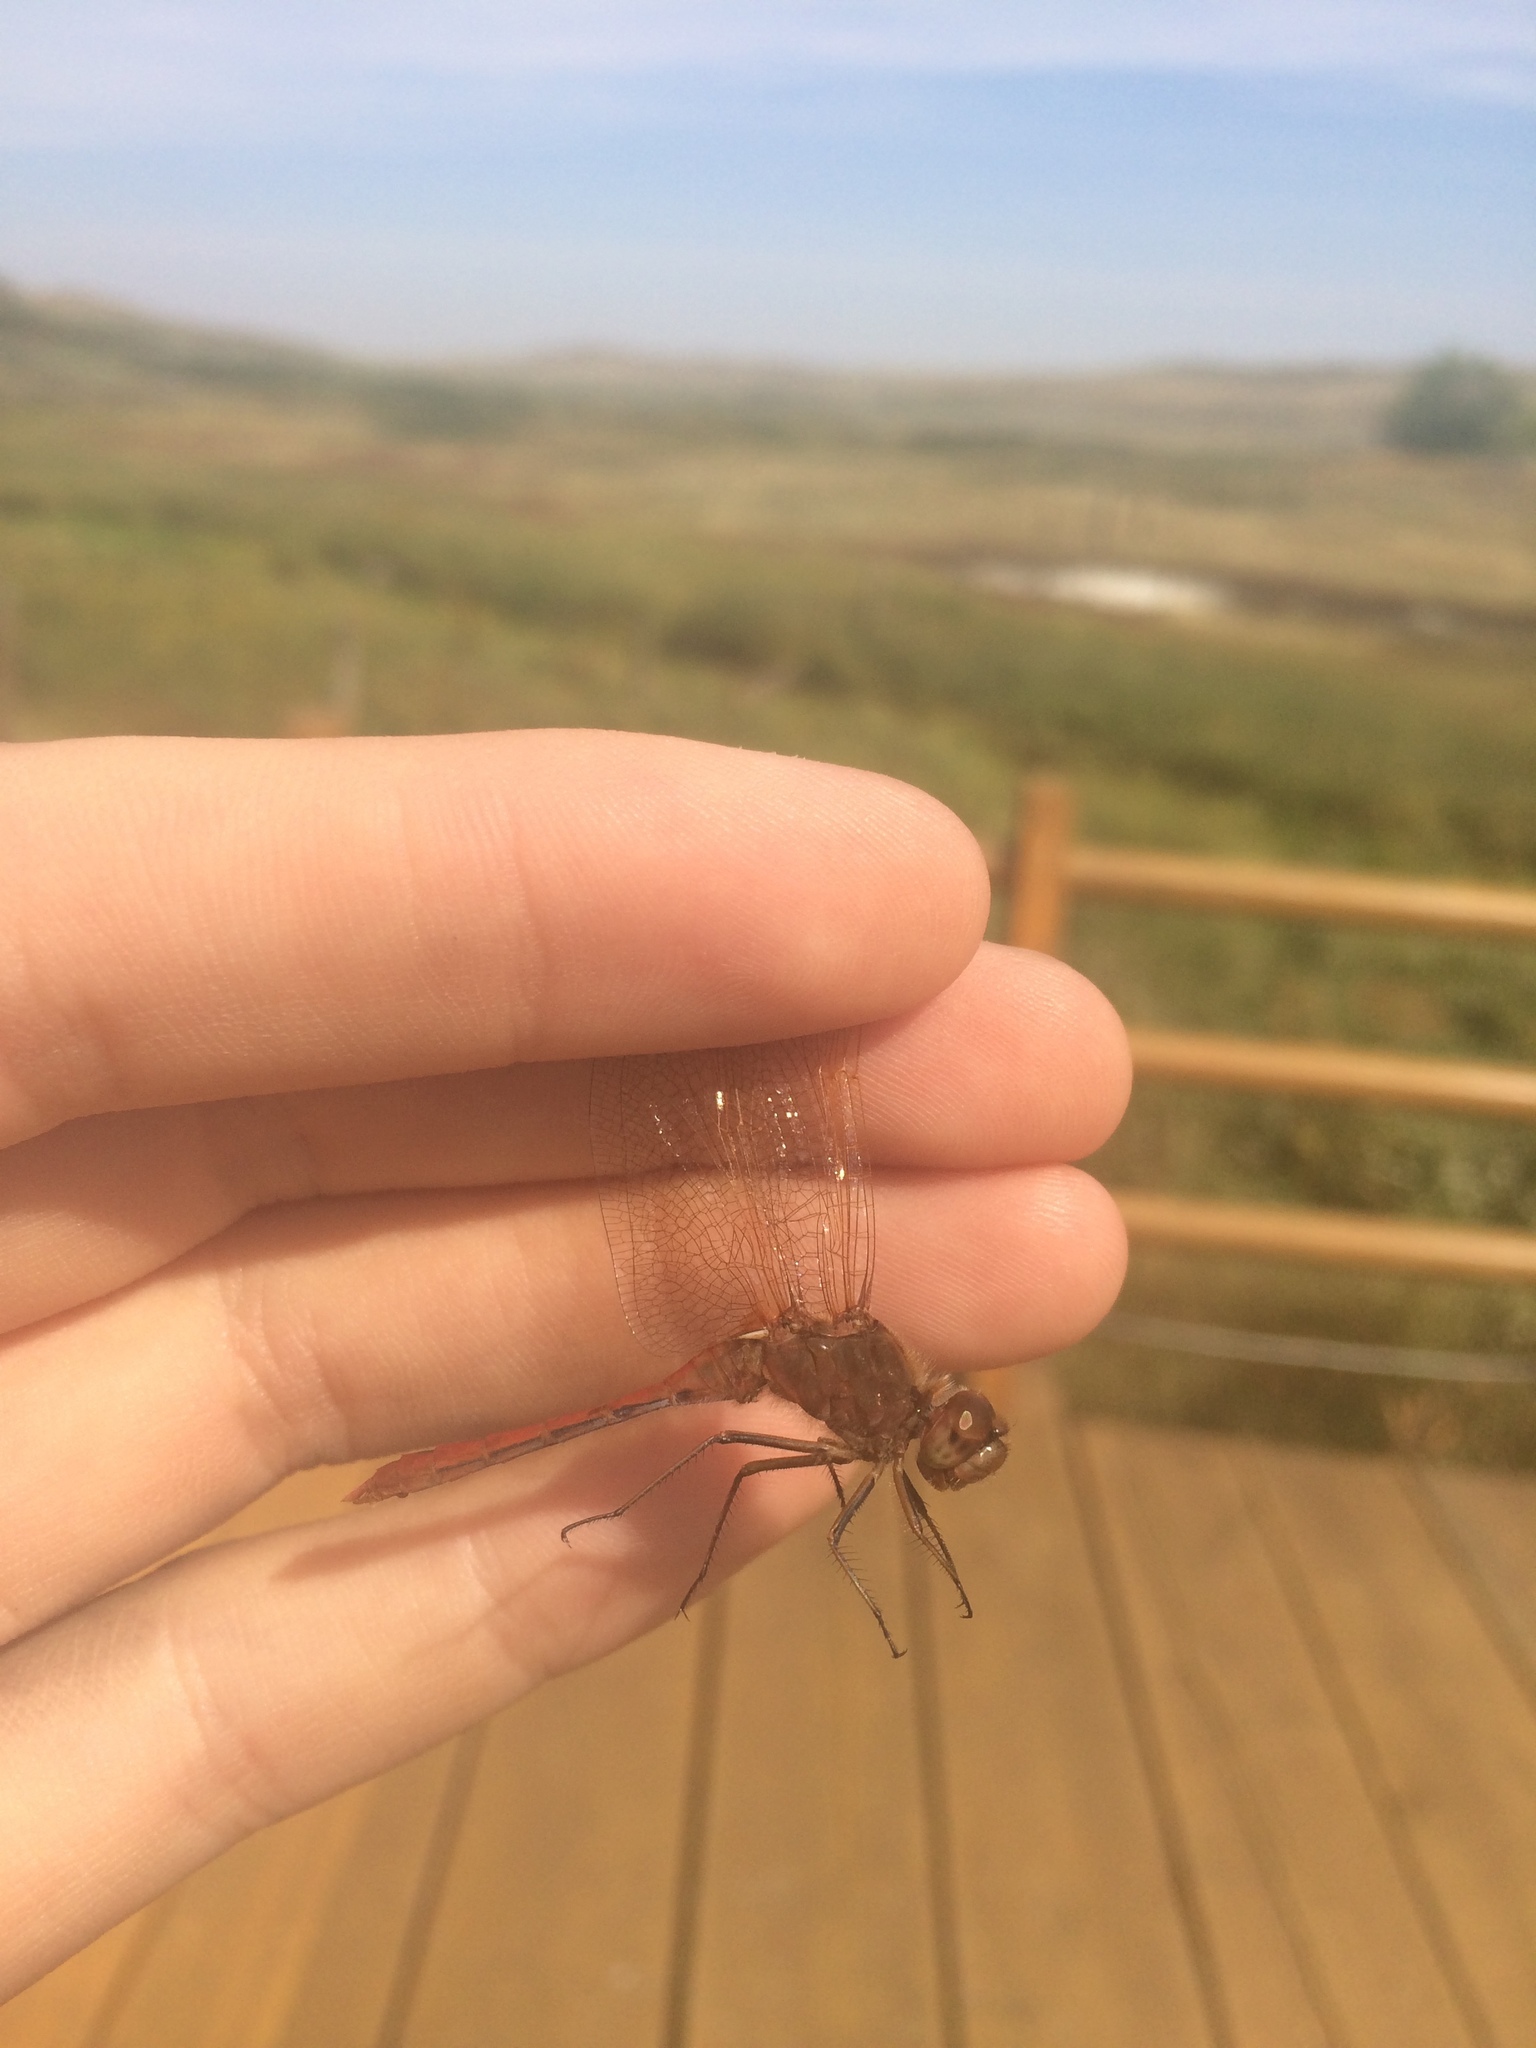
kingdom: Animalia
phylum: Arthropoda
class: Insecta
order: Odonata
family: Libellulidae
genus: Sympetrum
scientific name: Sympetrum costiferum
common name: Saffron-winged meadowhawk
